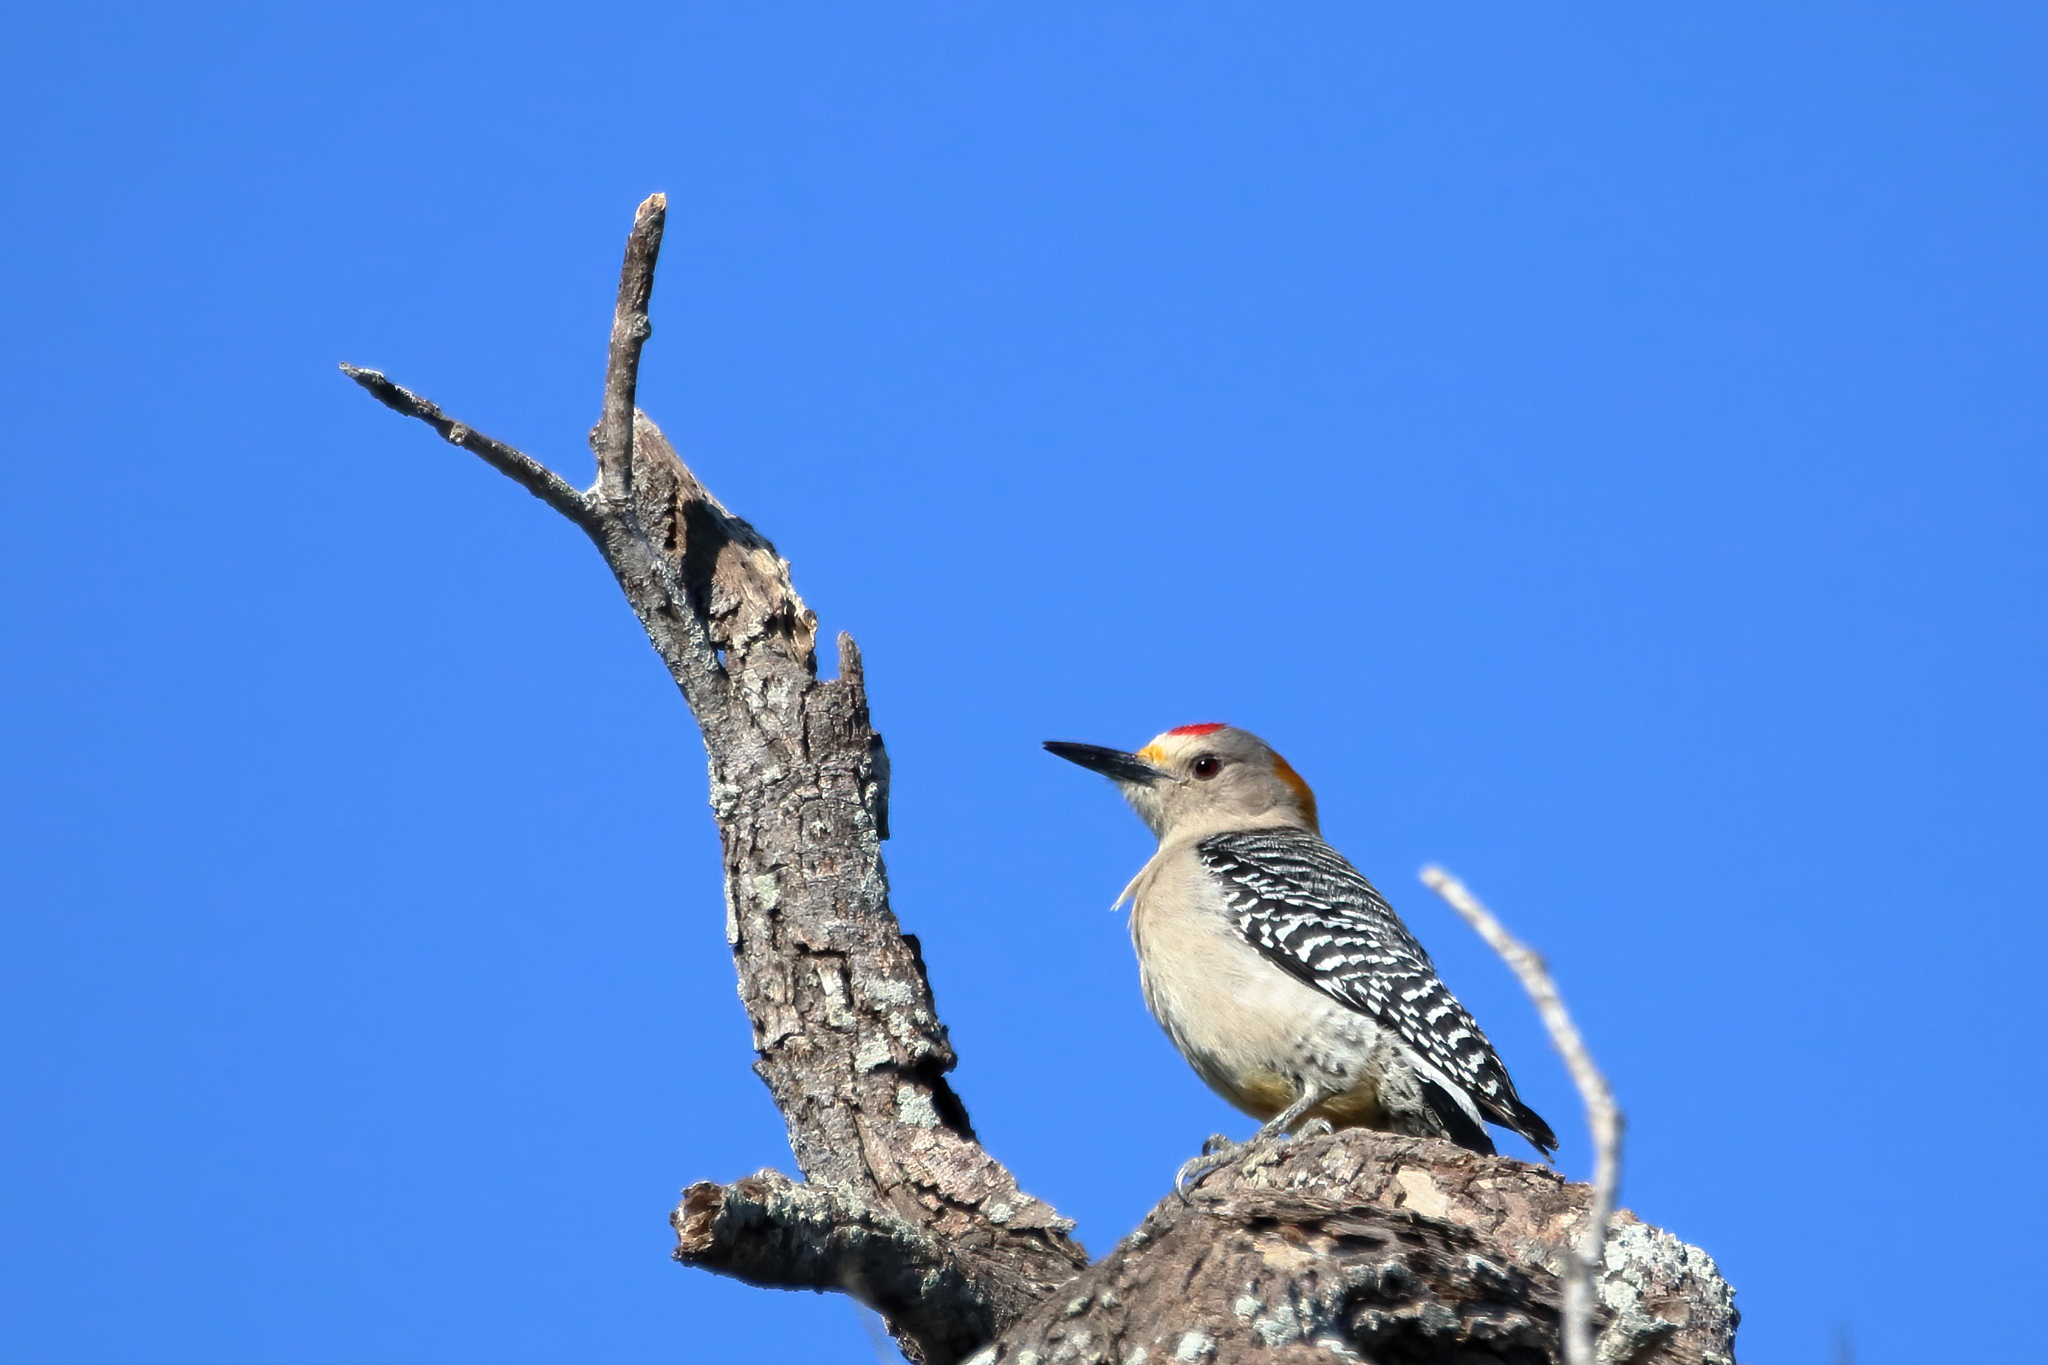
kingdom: Animalia
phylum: Chordata
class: Aves
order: Piciformes
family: Picidae
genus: Melanerpes
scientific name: Melanerpes aurifrons
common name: Golden-fronted woodpecker
